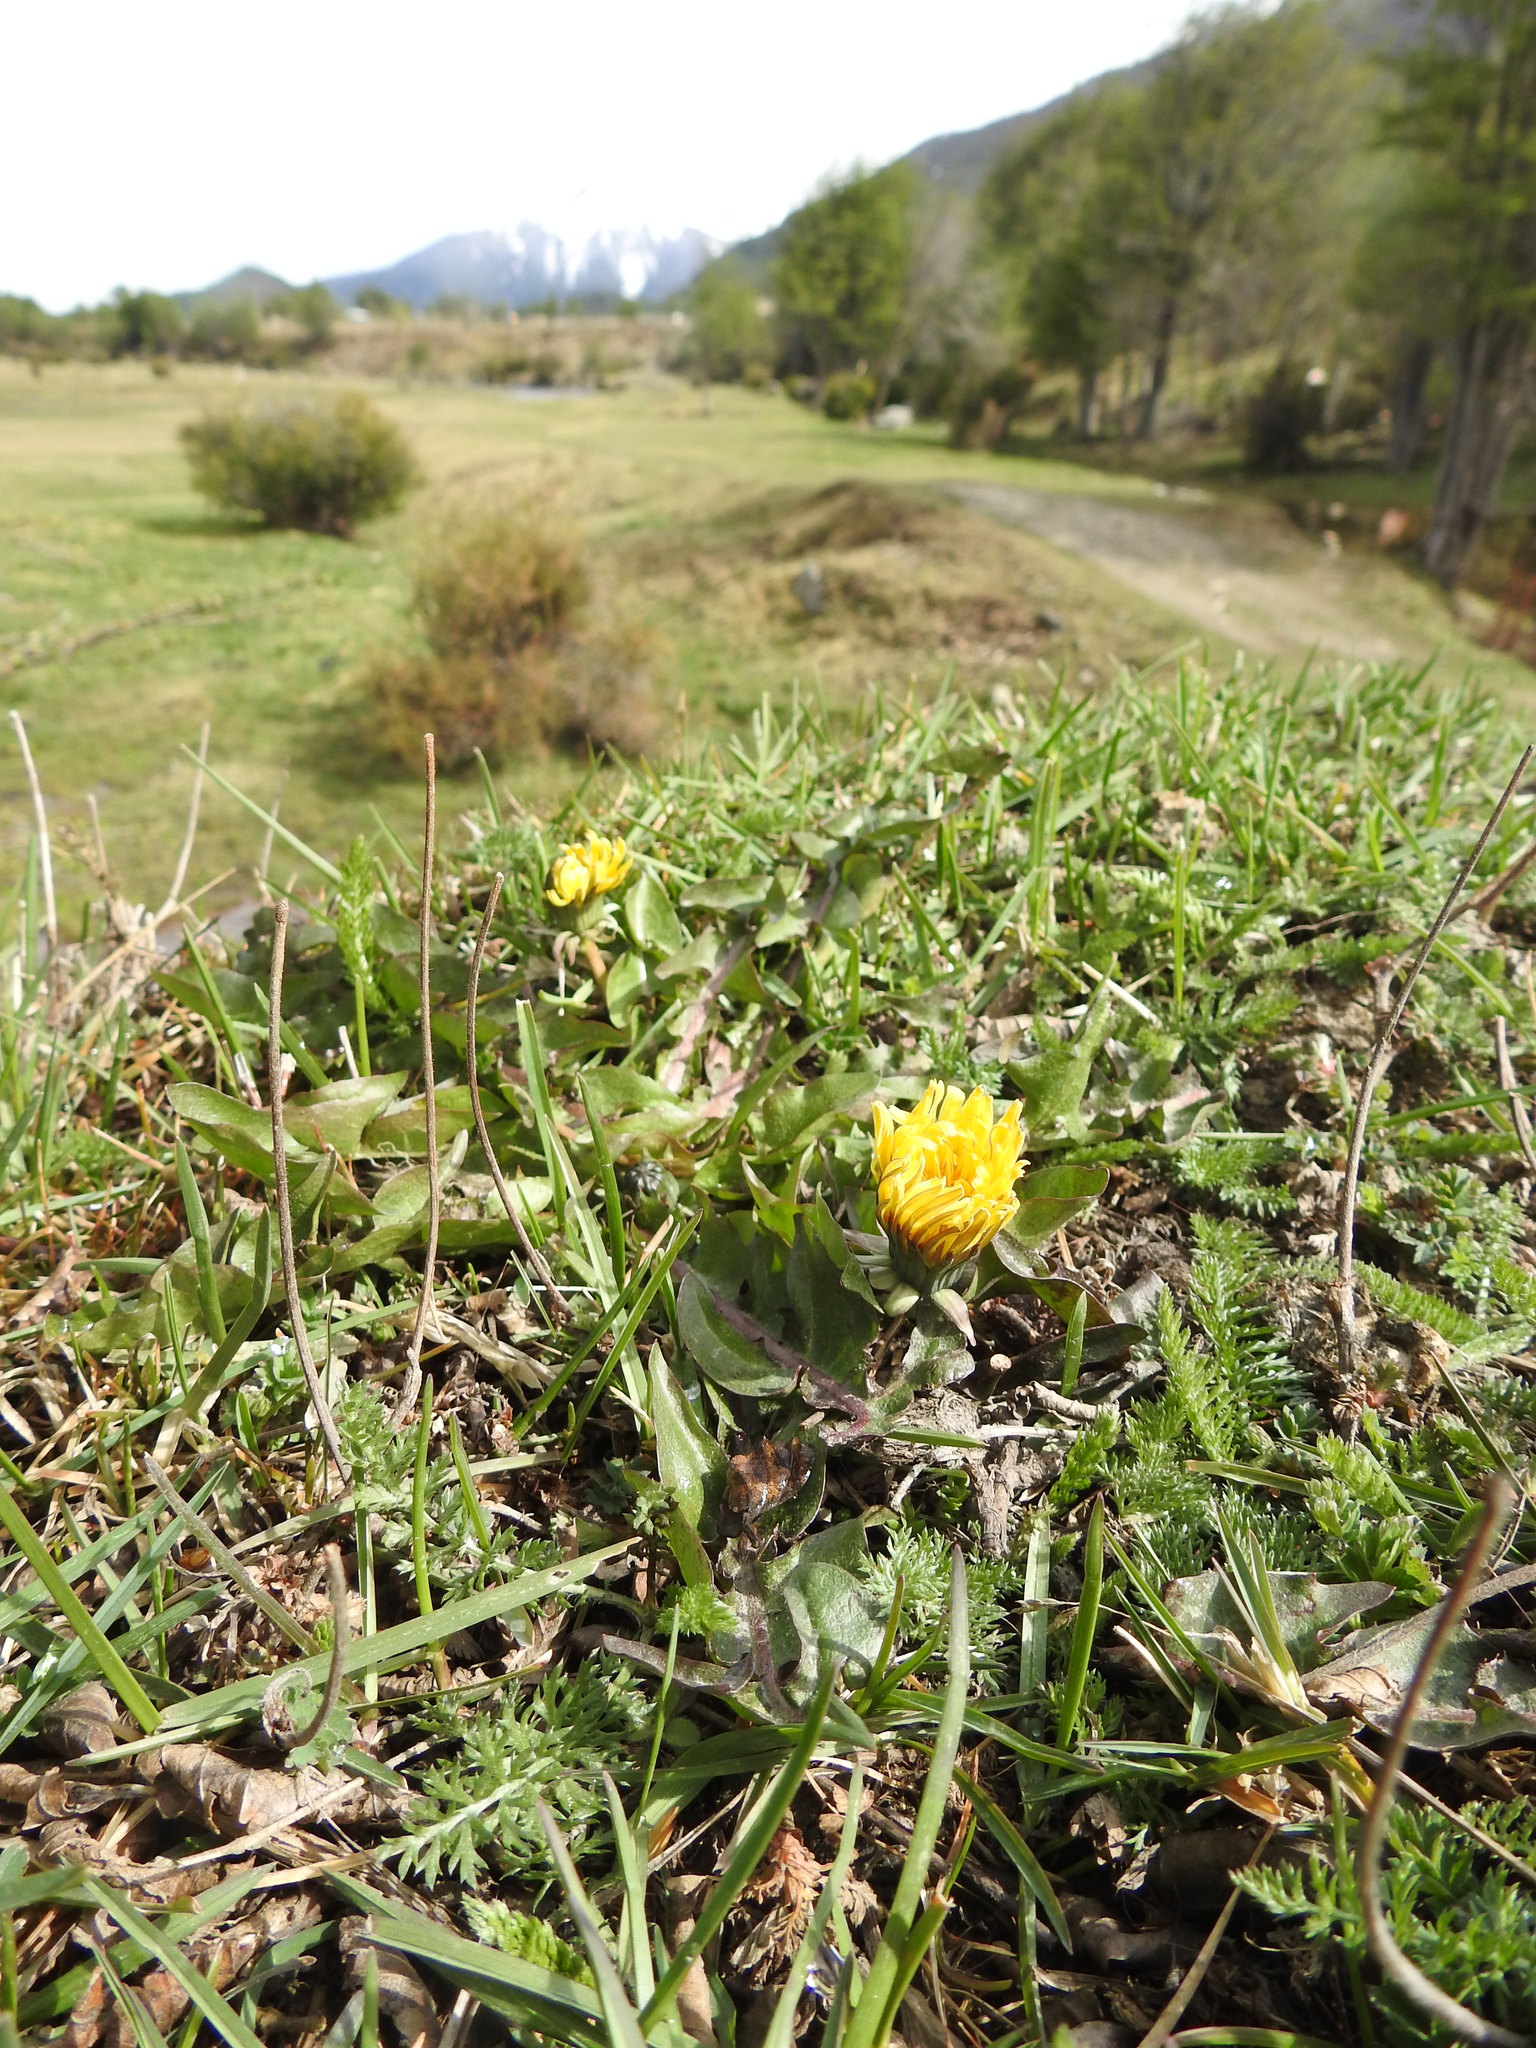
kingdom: Plantae
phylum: Tracheophyta
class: Magnoliopsida
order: Asterales
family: Asteraceae
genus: Taraxacum
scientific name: Taraxacum officinale
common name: Common dandelion
